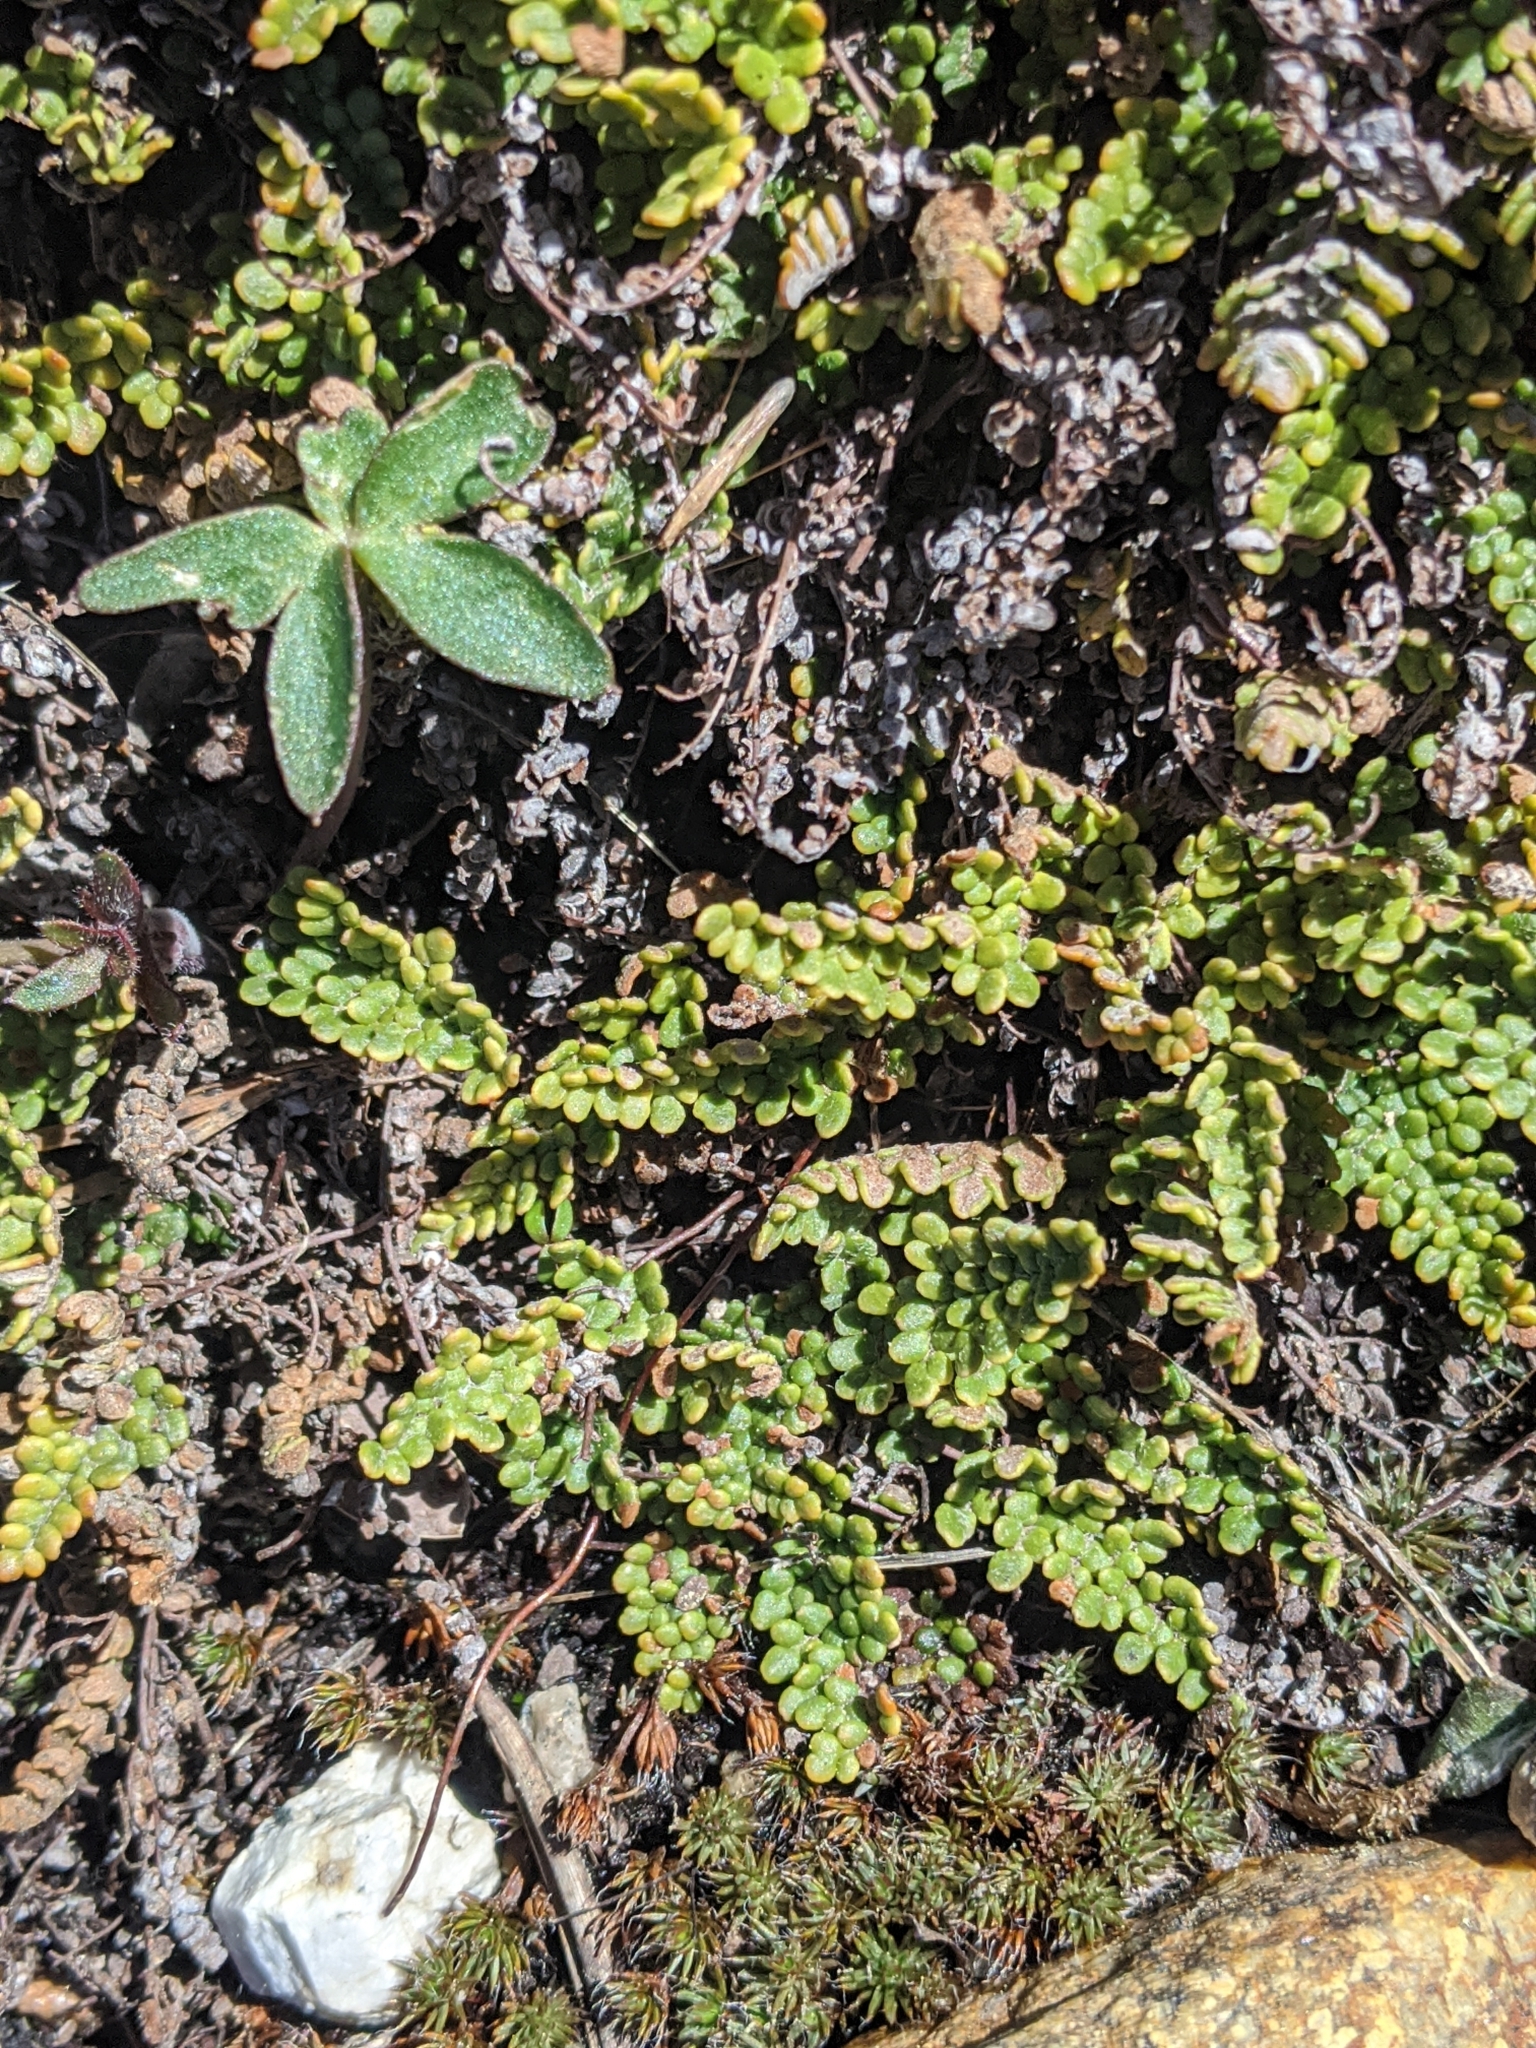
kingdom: Plantae
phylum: Tracheophyta
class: Polypodiopsida
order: Polypodiales
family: Pteridaceae
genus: Myriopteris
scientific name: Myriopteris gracillima
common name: Lace fern
